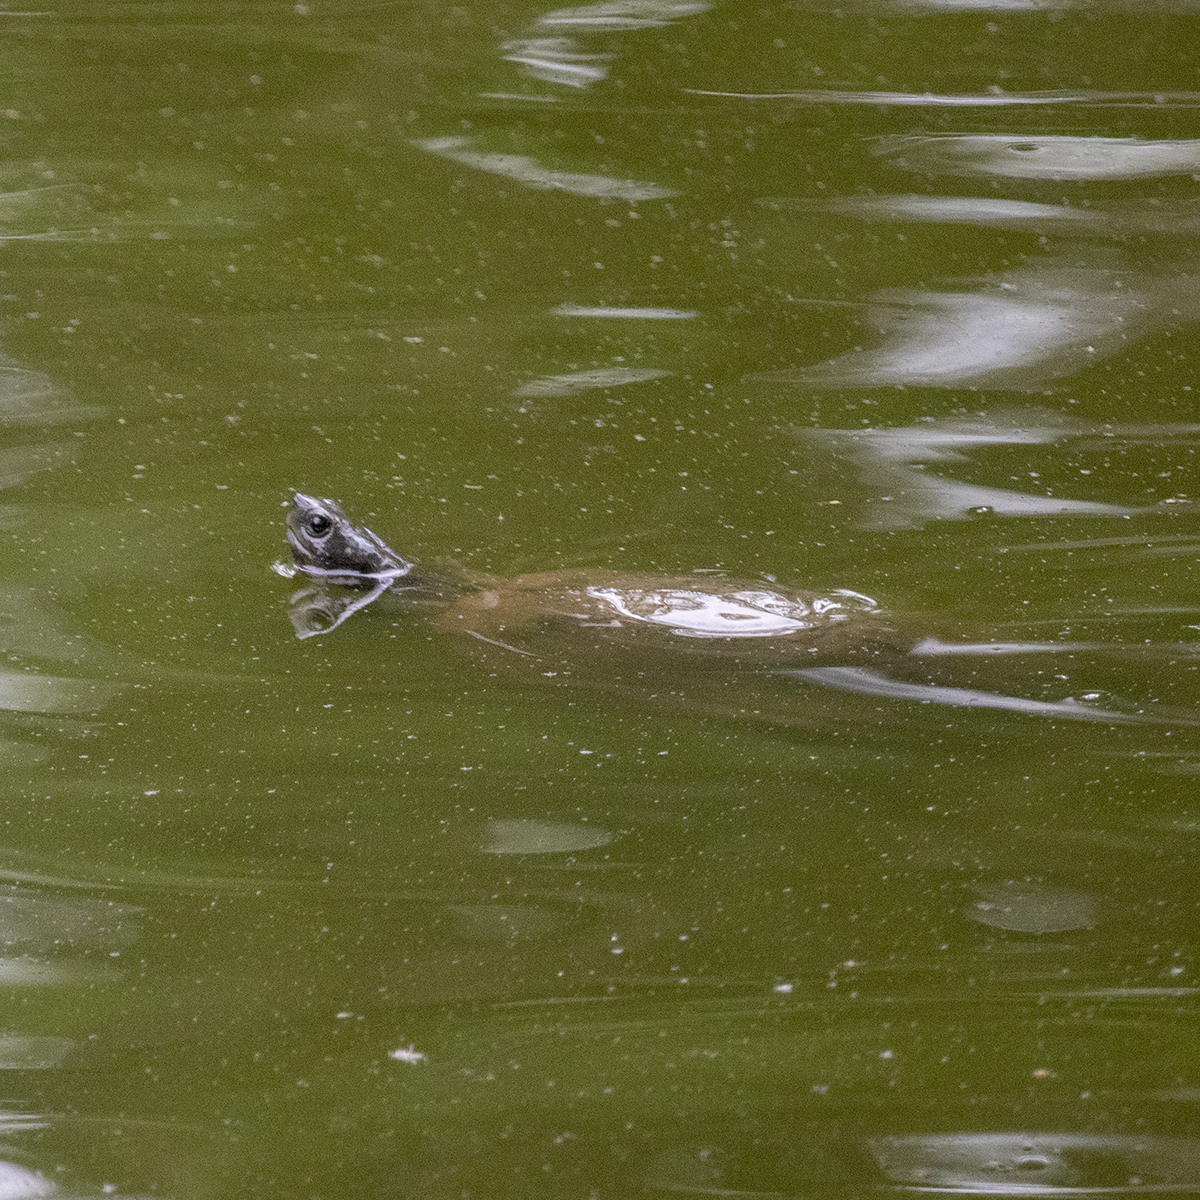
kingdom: Animalia
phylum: Chordata
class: Testudines
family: Geoemydidae
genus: Cyclemys
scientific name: Cyclemys gemeli
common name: Assam leaf turtle
